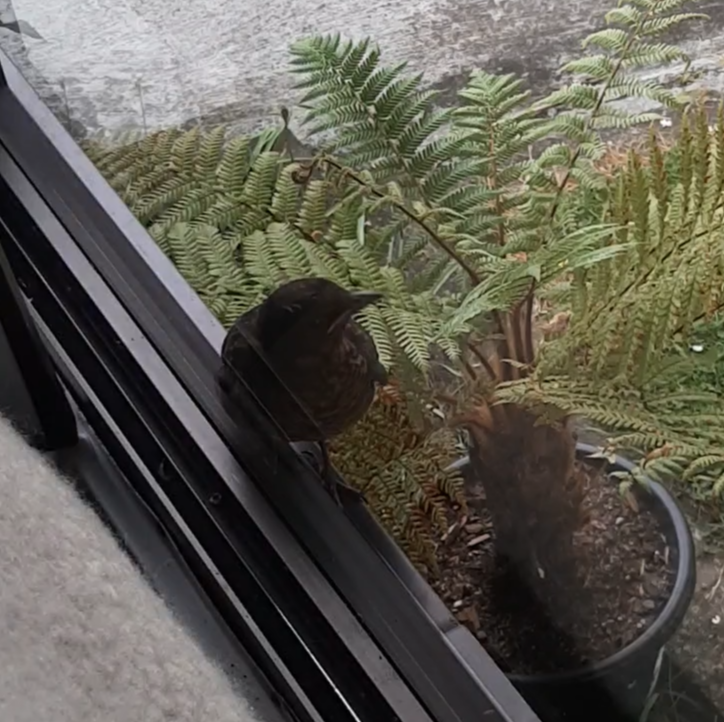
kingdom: Animalia
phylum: Chordata
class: Aves
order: Passeriformes
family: Turdidae
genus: Turdus
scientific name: Turdus merula
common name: Common blackbird
